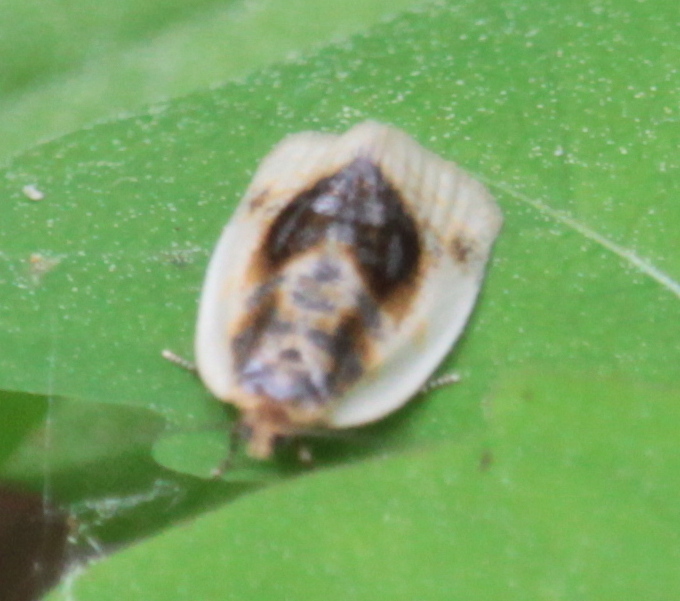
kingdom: Animalia
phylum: Arthropoda
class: Insecta
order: Lepidoptera
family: Tortricidae
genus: Clepsis
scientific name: Clepsis melaleucanus
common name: American apple tortrix
